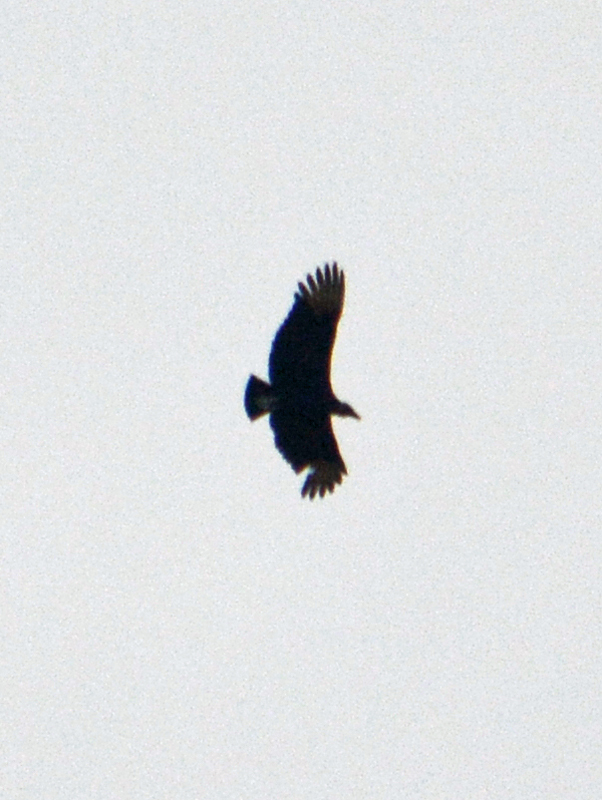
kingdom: Animalia
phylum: Chordata
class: Aves
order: Accipitriformes
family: Cathartidae
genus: Coragyps
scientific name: Coragyps atratus
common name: Black vulture
